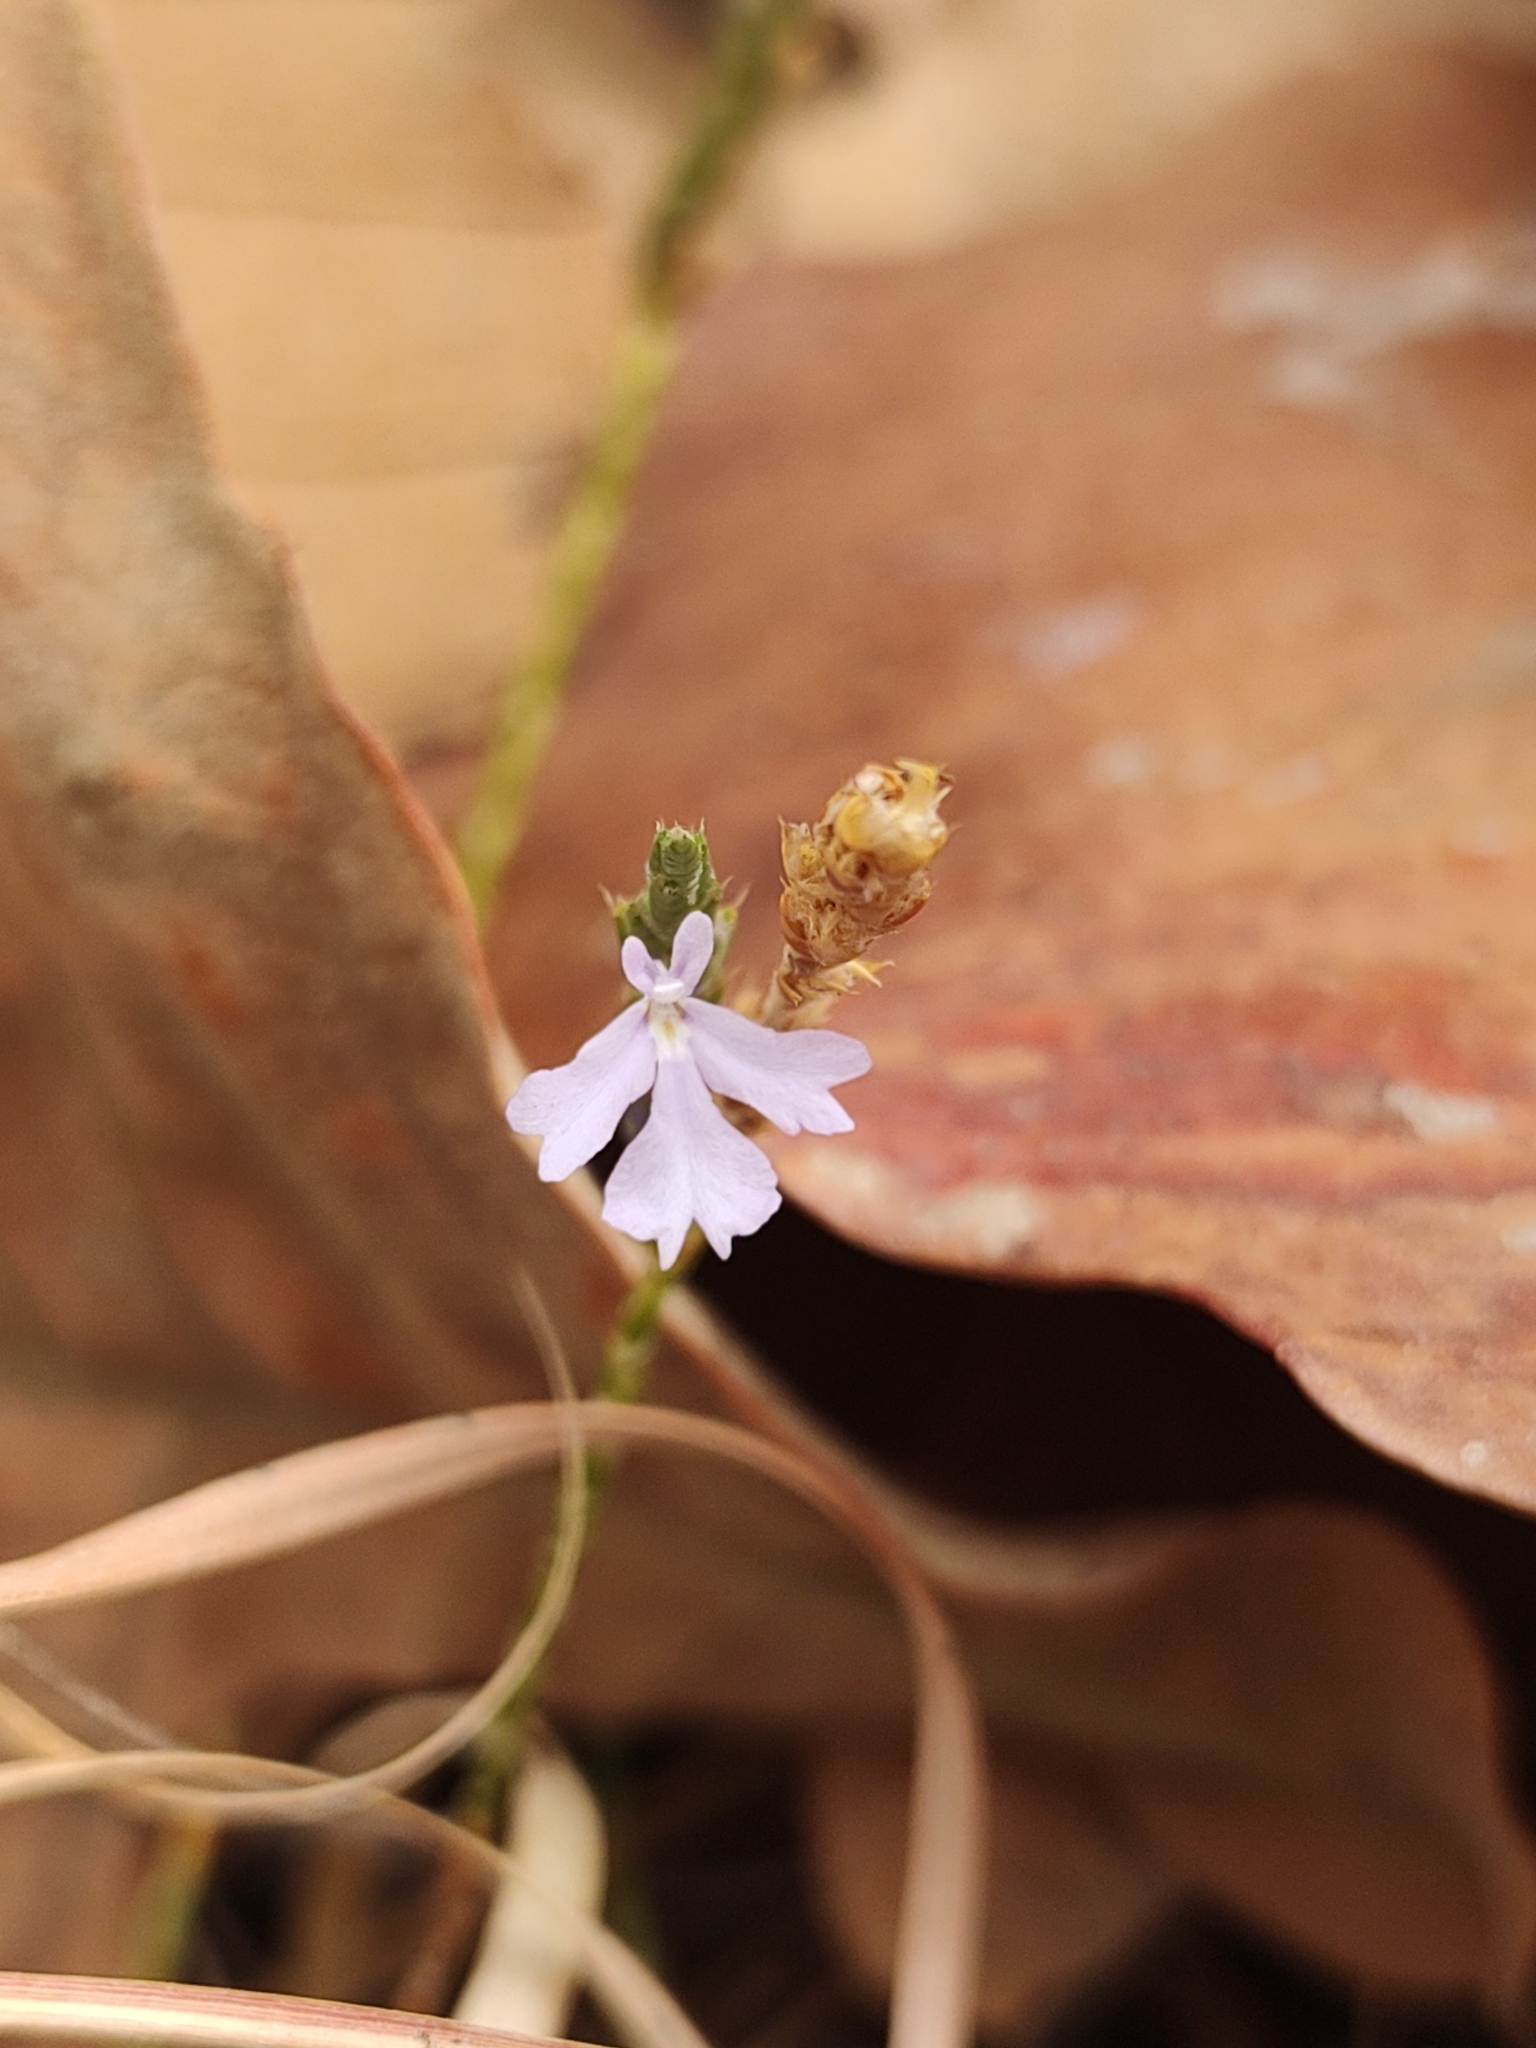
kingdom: Plantae
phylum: Tracheophyta
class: Magnoliopsida
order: Lamiales
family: Acanthaceae
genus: Elytraria
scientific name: Elytraria imbricata
